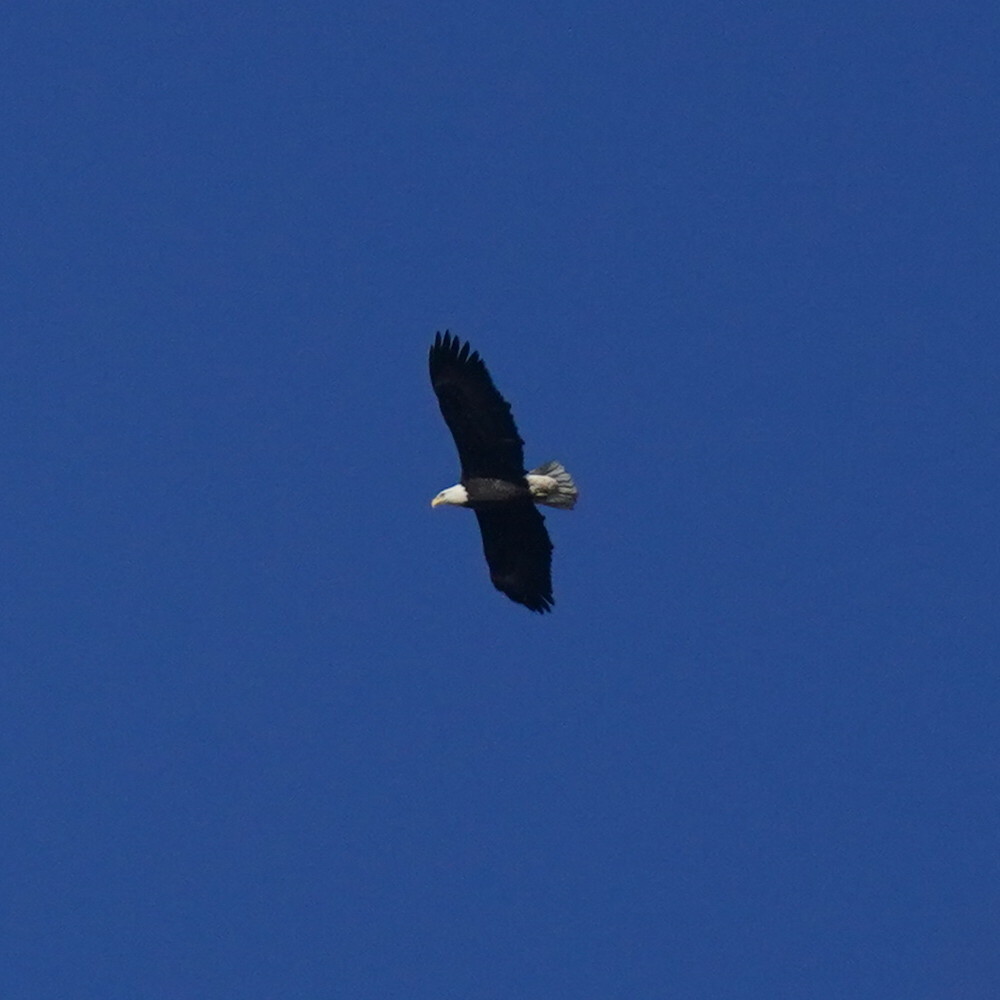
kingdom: Animalia
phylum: Chordata
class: Aves
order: Accipitriformes
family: Accipitridae
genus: Haliaeetus
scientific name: Haliaeetus leucocephalus
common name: Bald eagle
